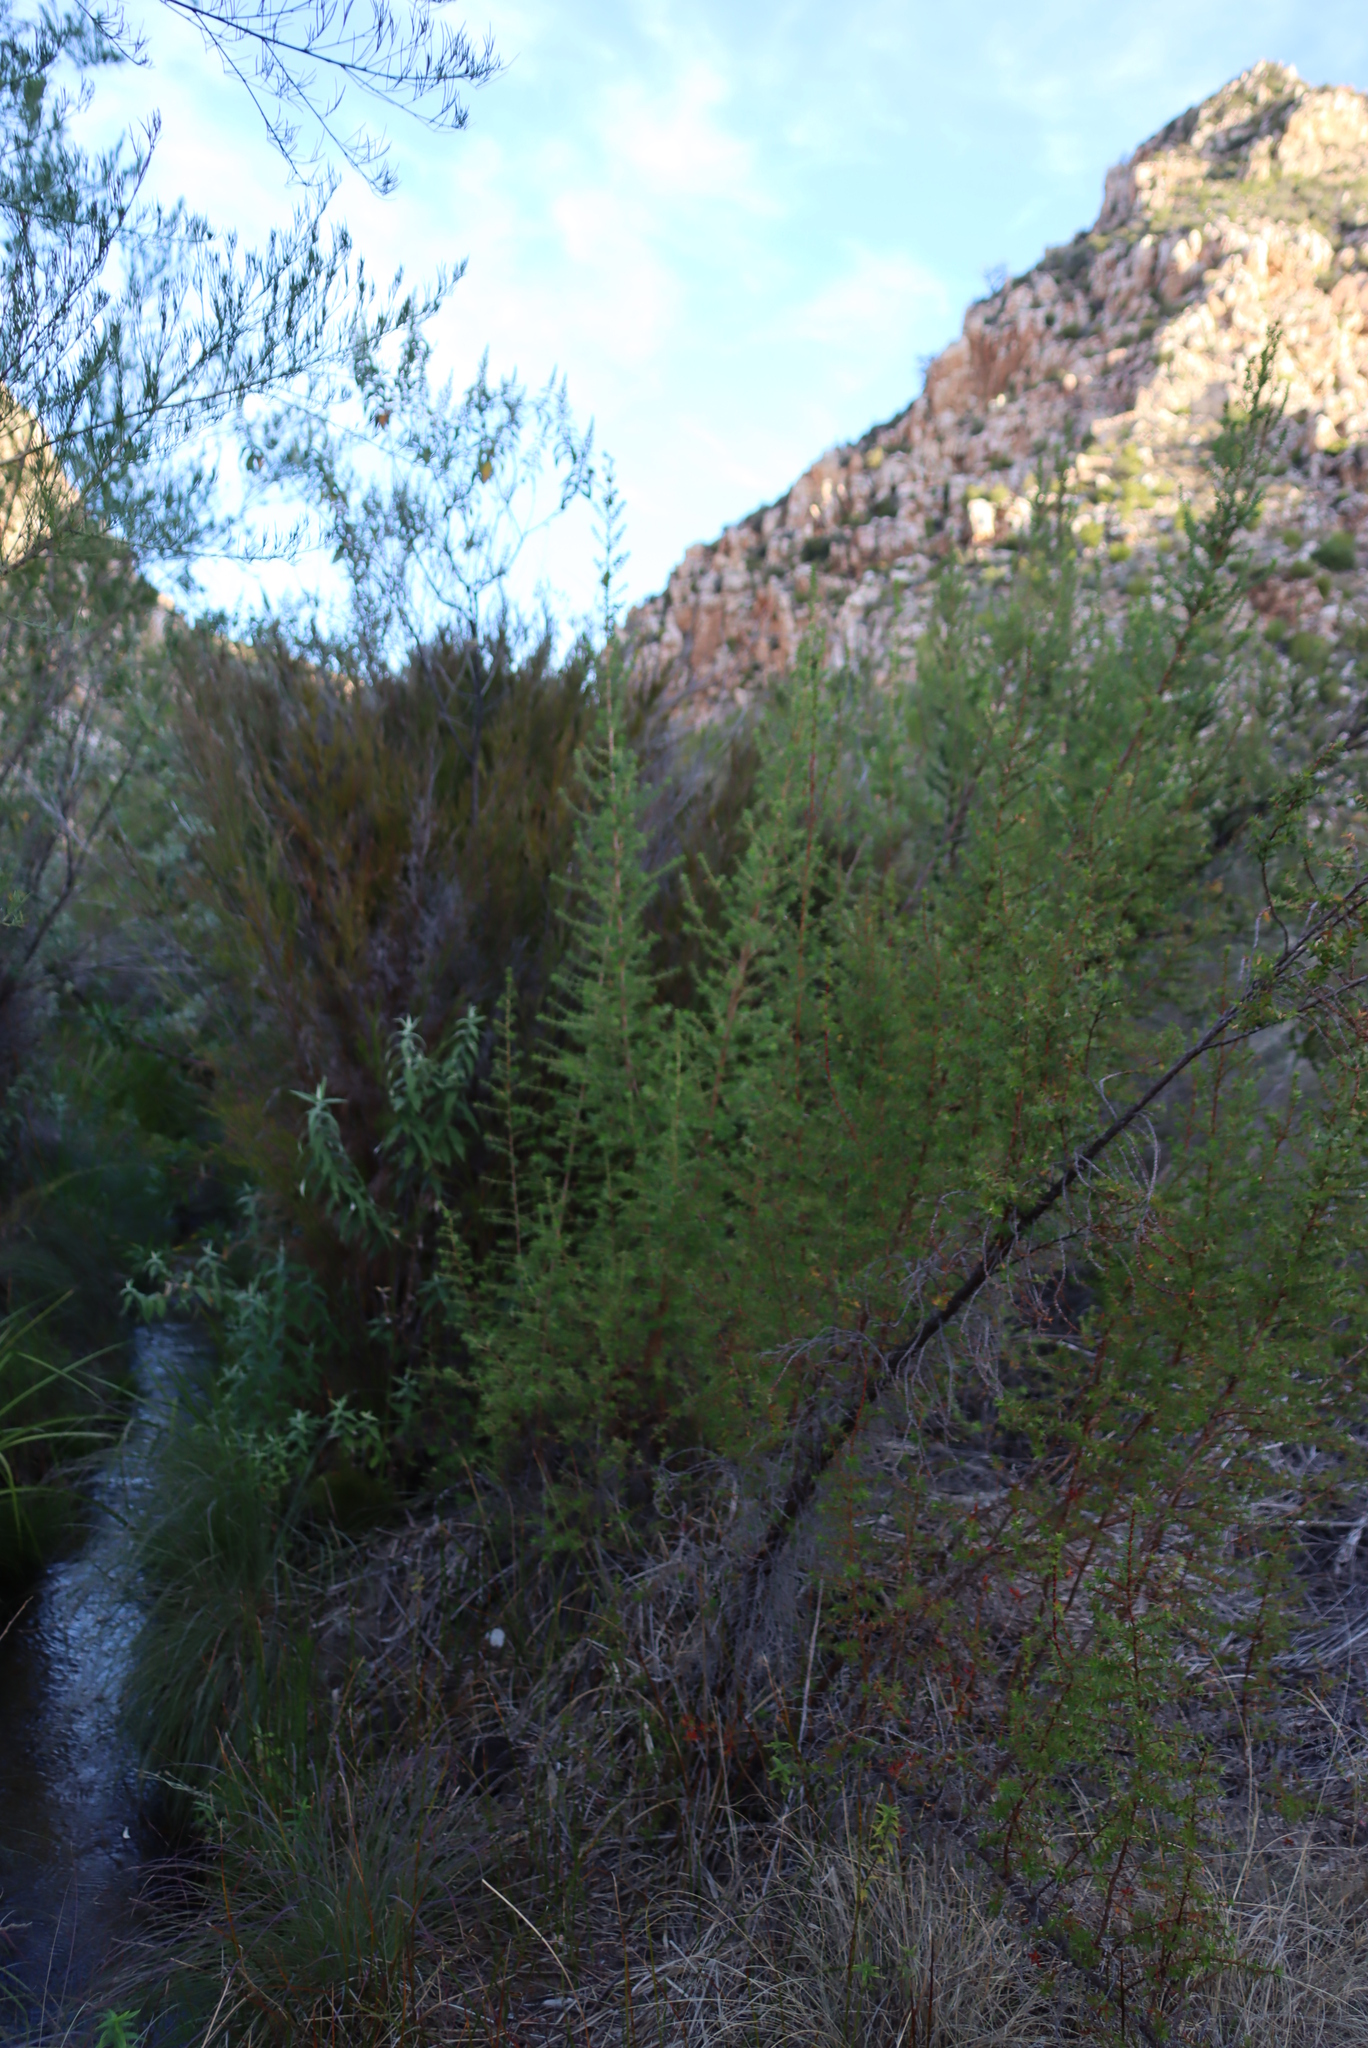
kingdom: Plantae
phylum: Tracheophyta
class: Magnoliopsida
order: Rosales
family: Rosaceae
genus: Cliffortia
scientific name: Cliffortia ilicifolia
